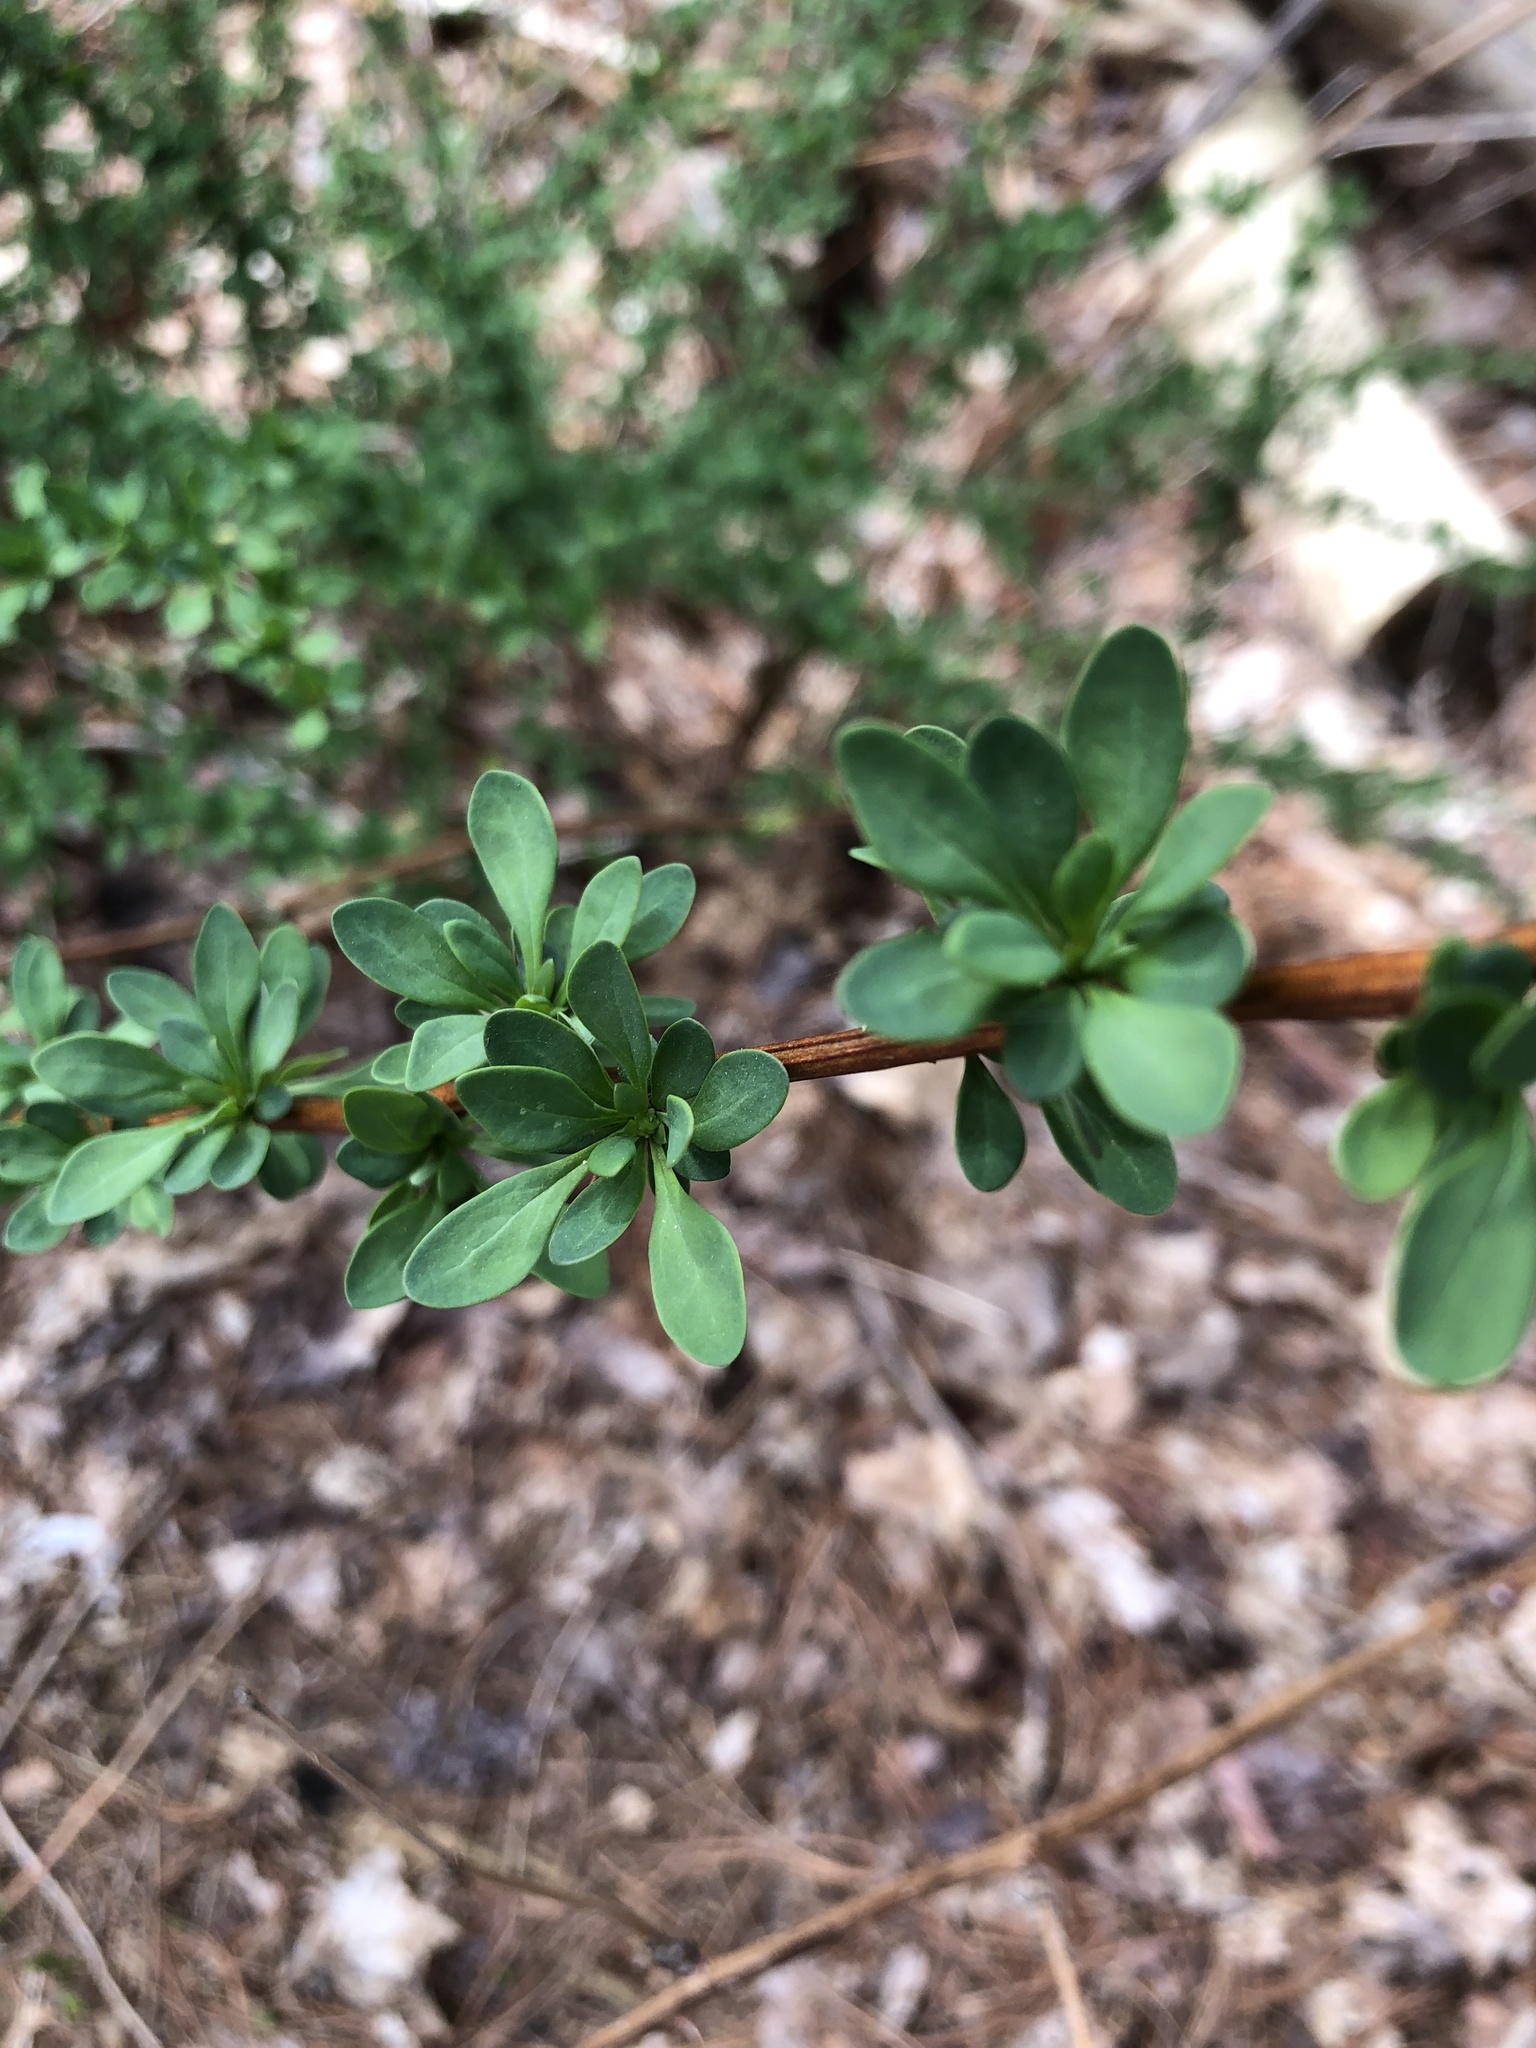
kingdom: Plantae
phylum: Tracheophyta
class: Magnoliopsida
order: Ranunculales
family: Berberidaceae
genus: Berberis
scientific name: Berberis thunbergii
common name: Japanese barberry
